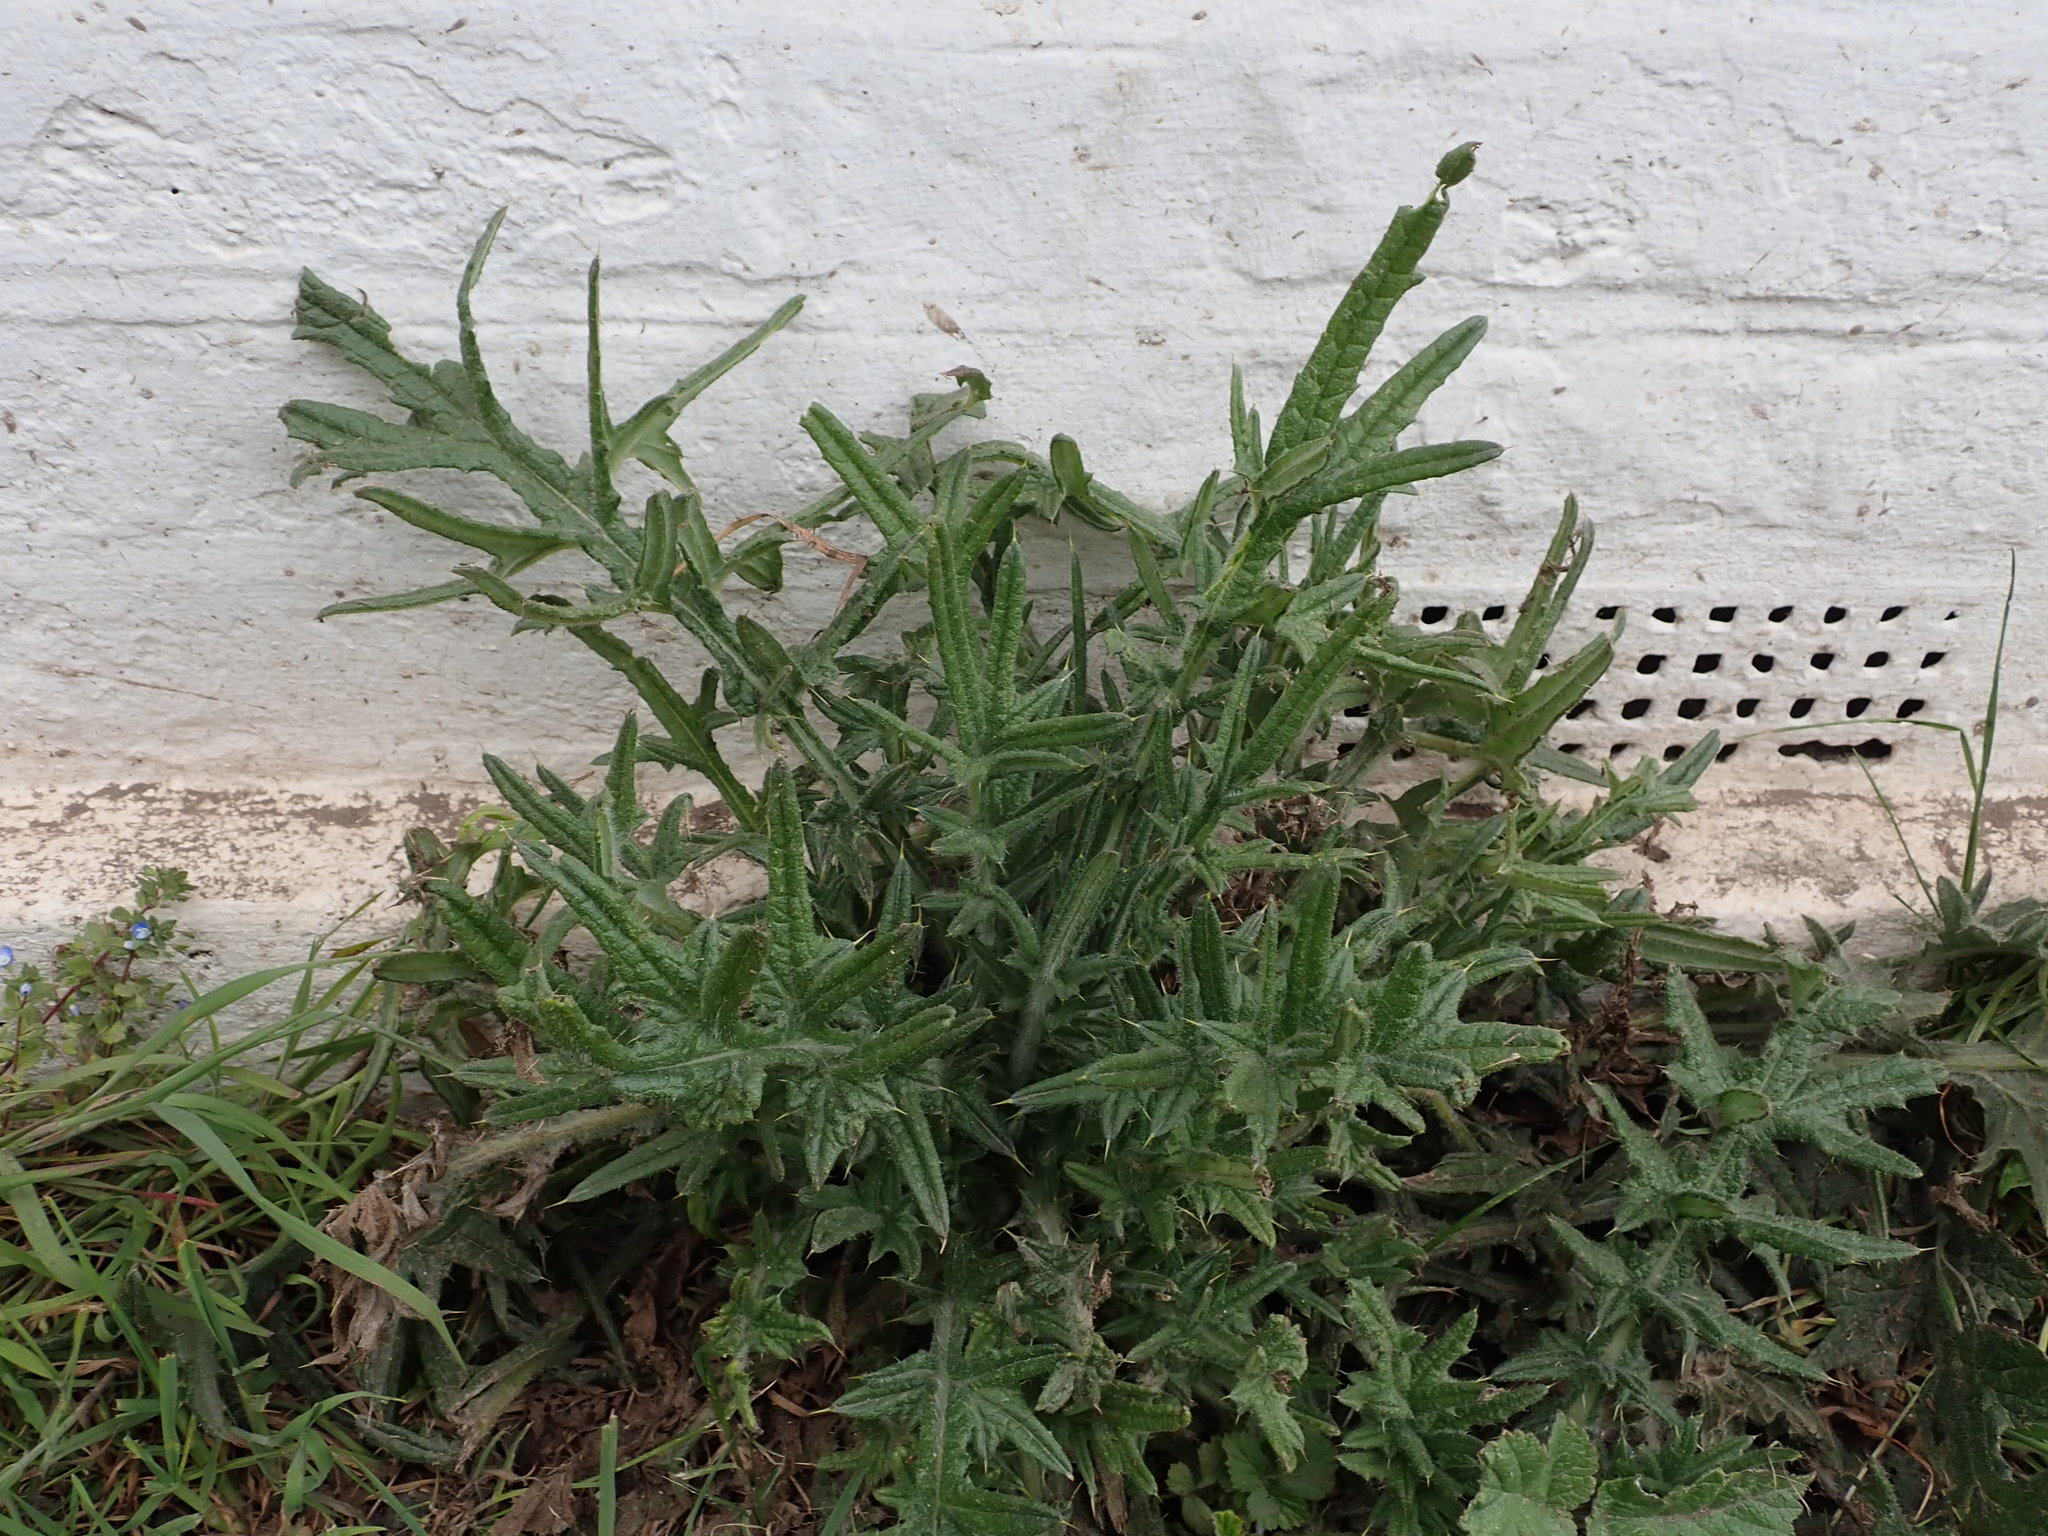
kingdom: Plantae
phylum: Tracheophyta
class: Magnoliopsida
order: Asterales
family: Asteraceae
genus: Cirsium
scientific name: Cirsium vulgare
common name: Bull thistle
